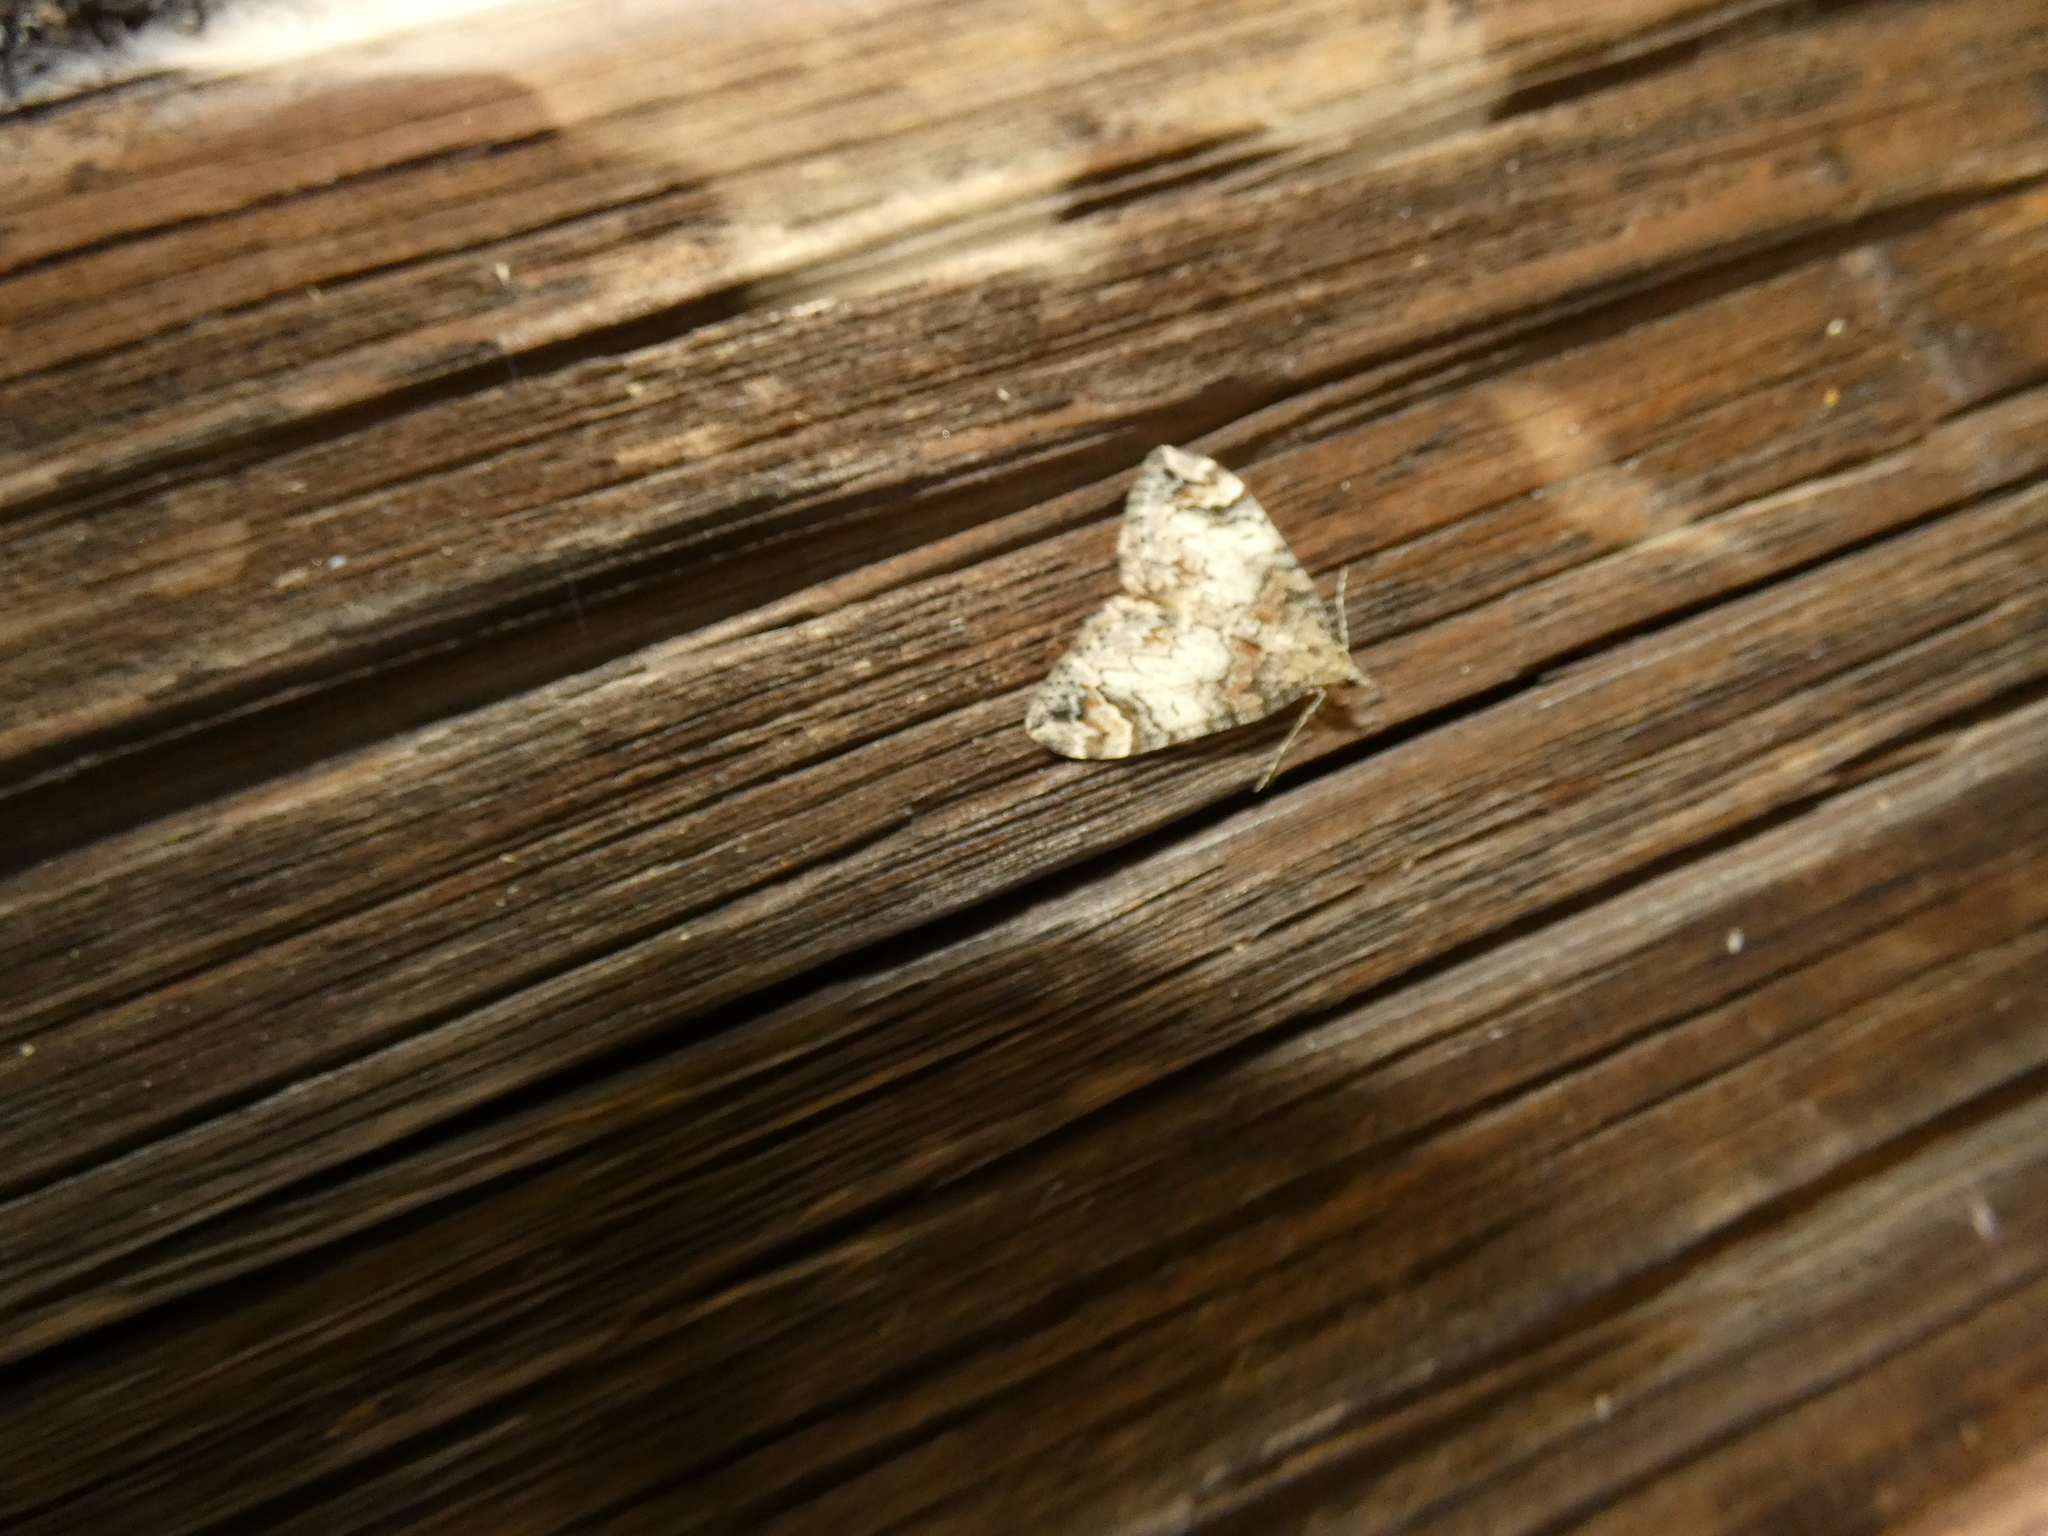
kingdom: Animalia
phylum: Arthropoda
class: Insecta
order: Lepidoptera
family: Geometridae
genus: Dysstroma
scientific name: Dysstroma citrata
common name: Dark marbled carpet
